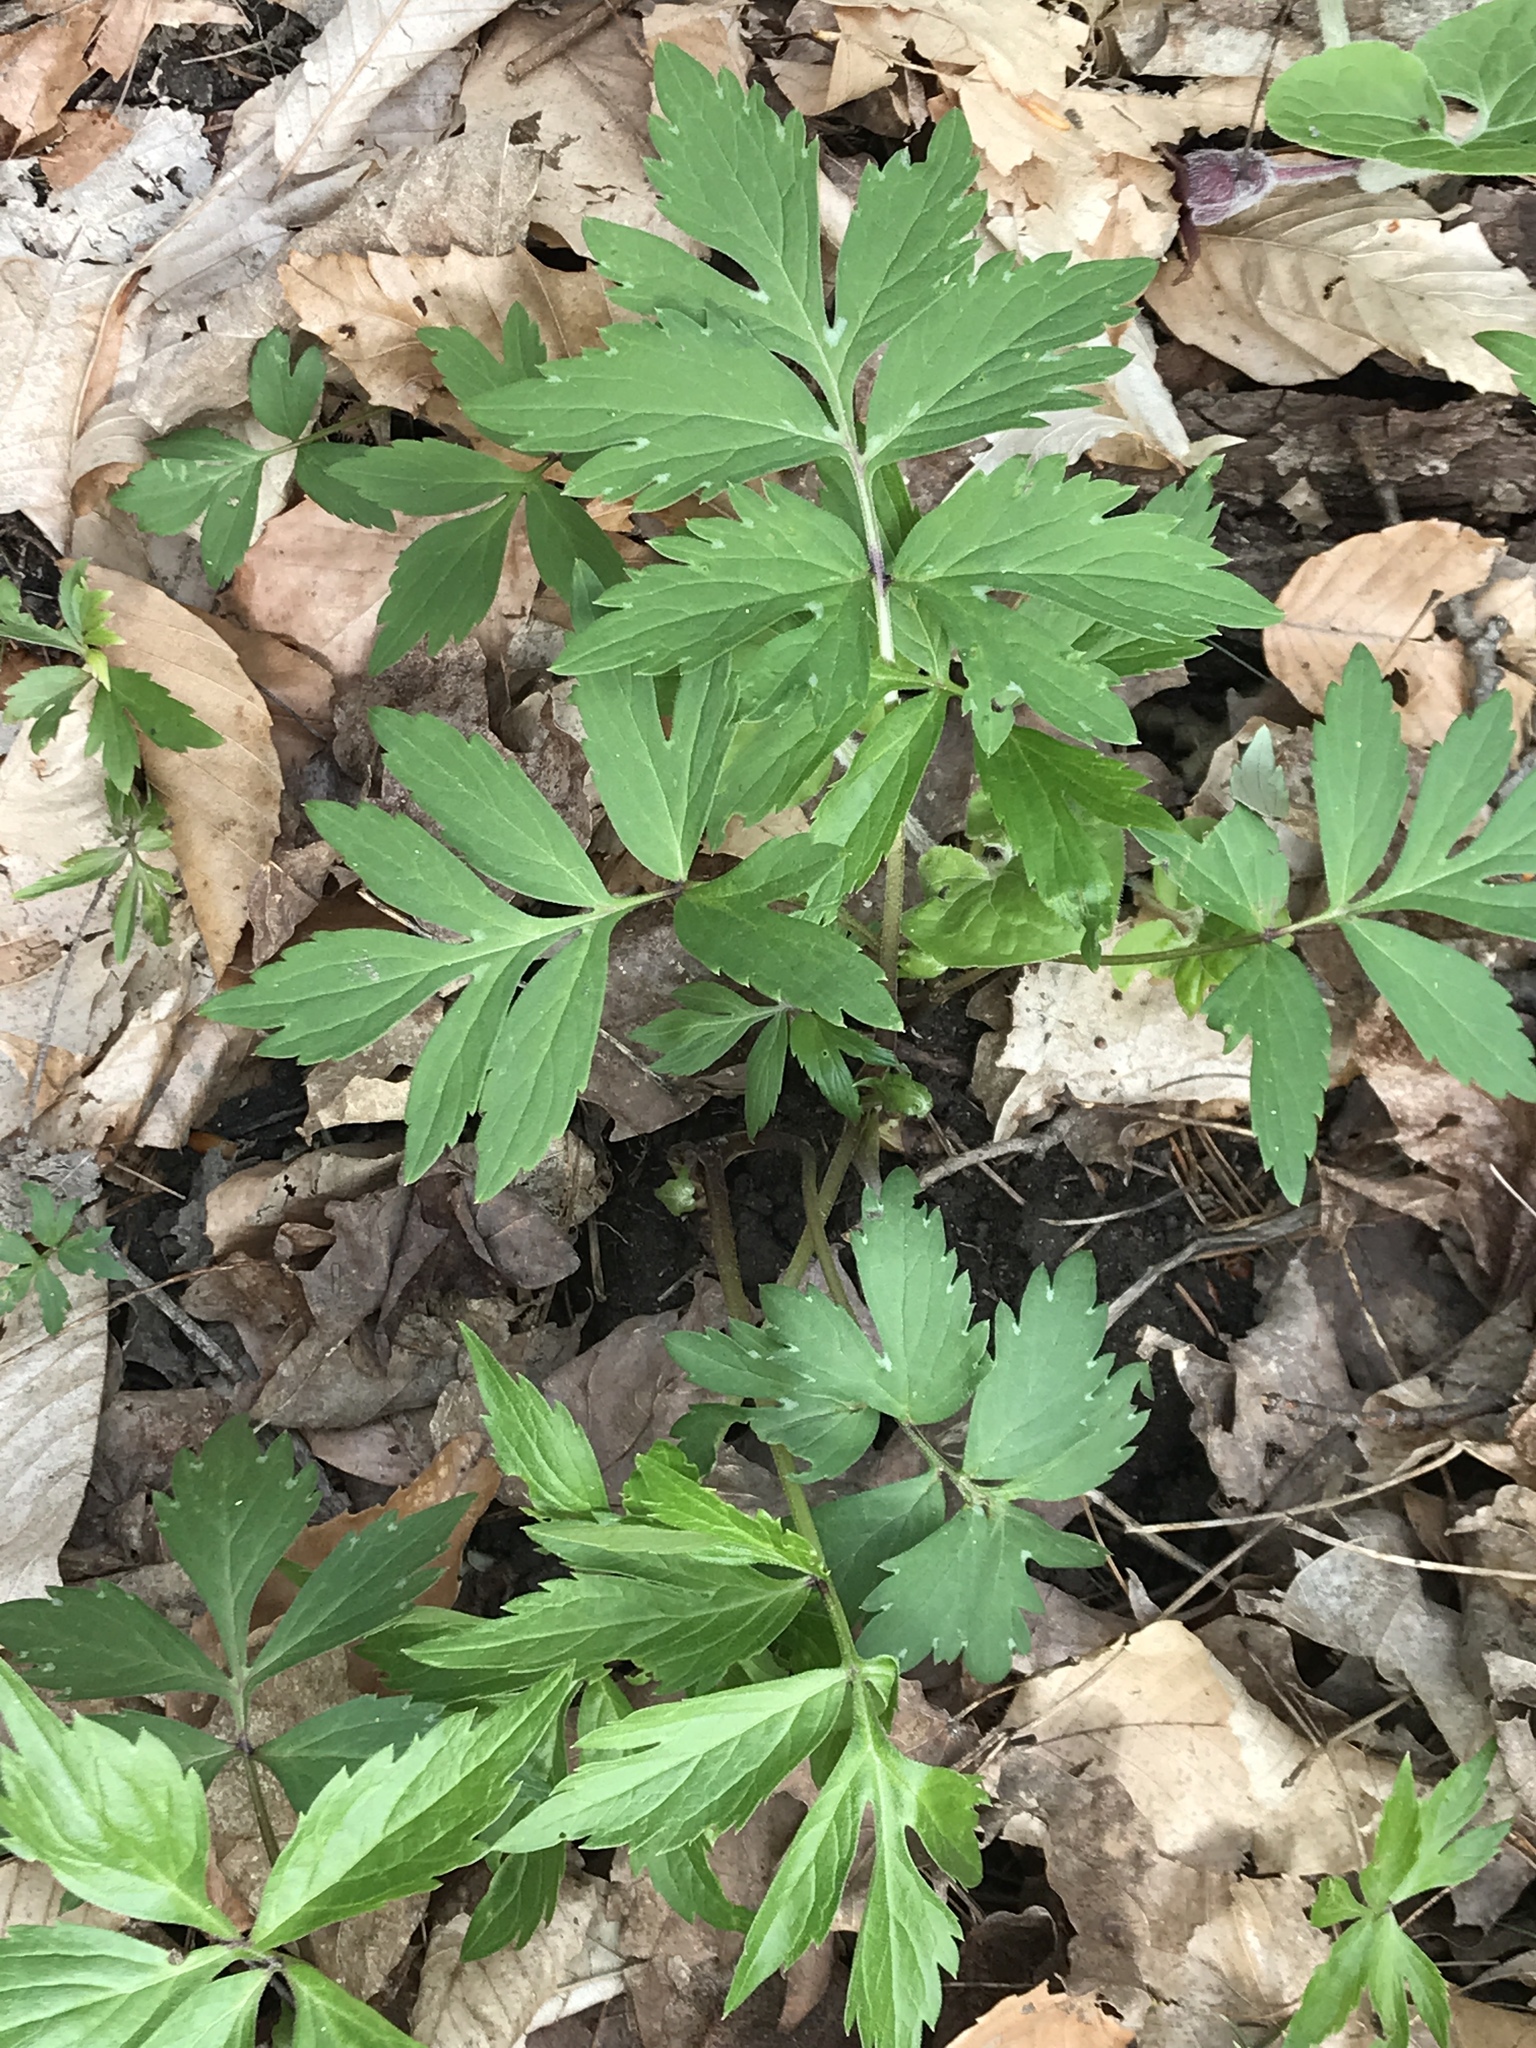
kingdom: Plantae
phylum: Tracheophyta
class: Magnoliopsida
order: Boraginales
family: Hydrophyllaceae
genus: Hydrophyllum
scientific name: Hydrophyllum virginianum
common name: Virginia waterleaf
